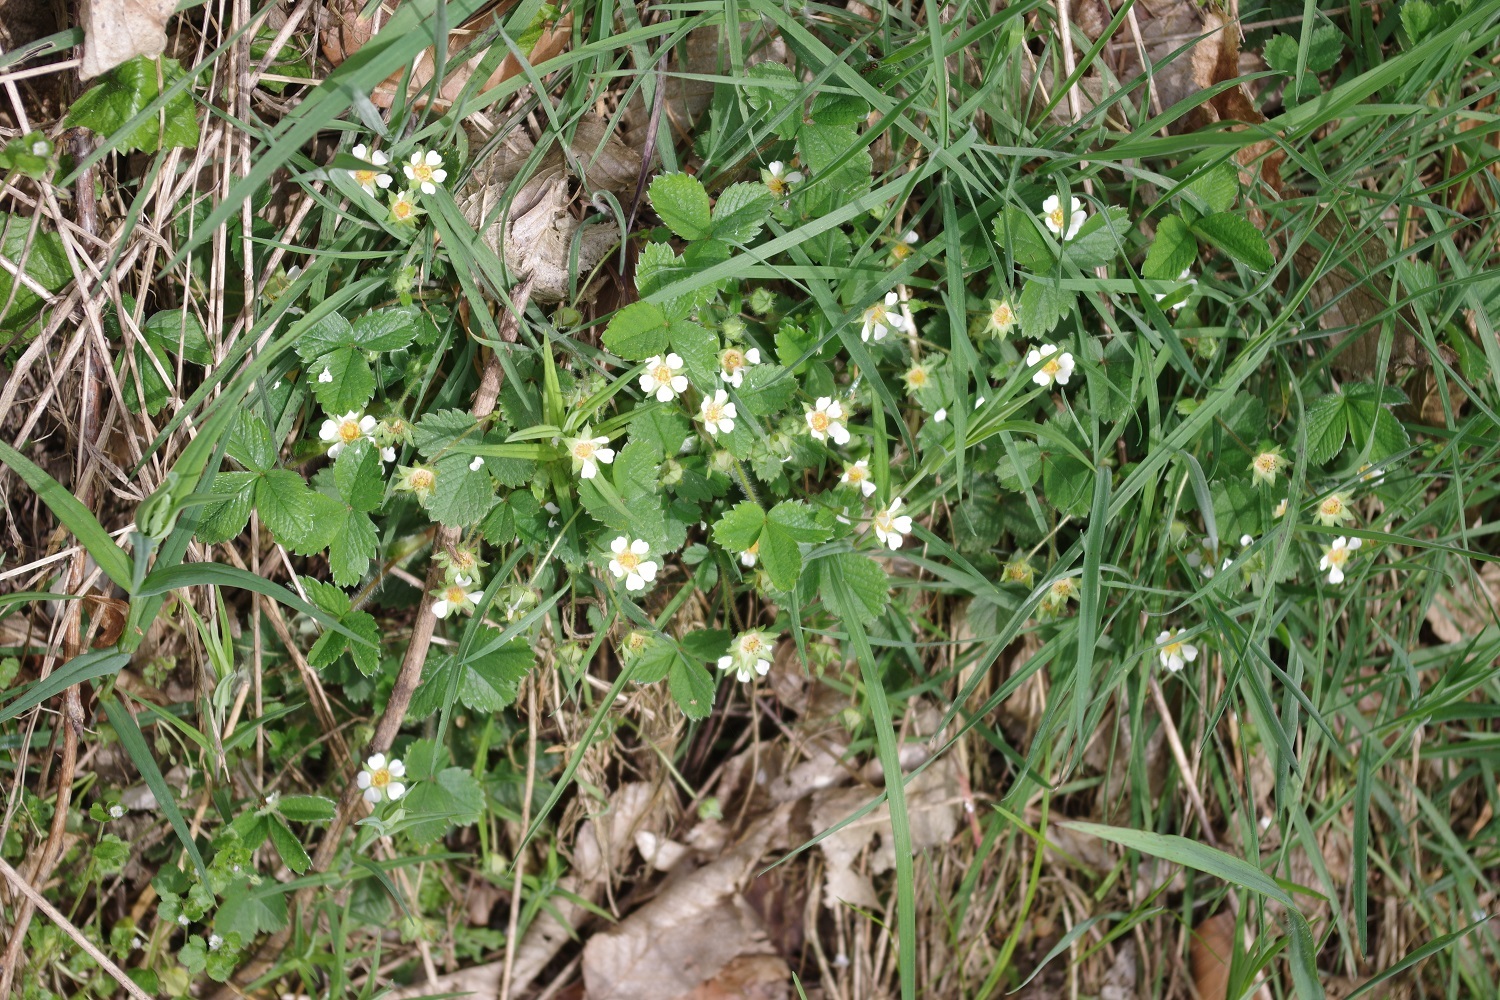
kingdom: Plantae
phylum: Tracheophyta
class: Magnoliopsida
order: Rosales
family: Rosaceae
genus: Potentilla
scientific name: Potentilla sterilis
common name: Barren strawberry
